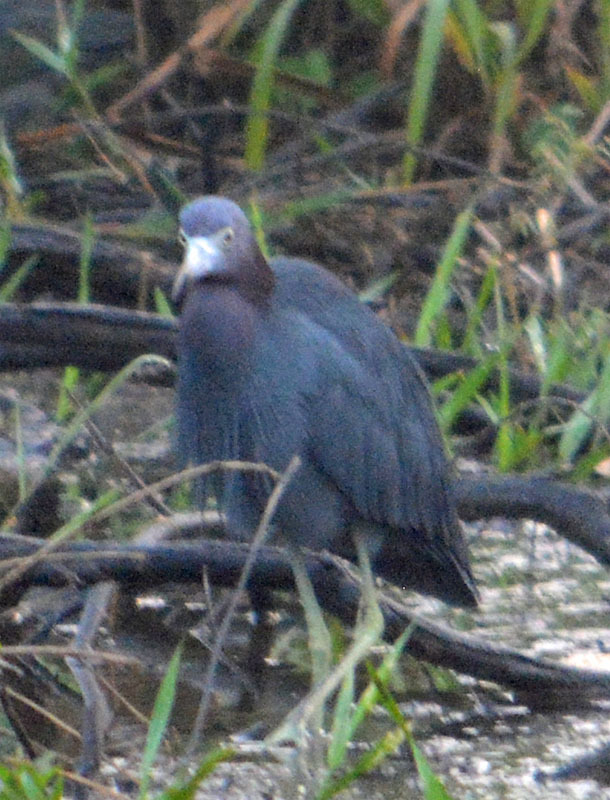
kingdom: Animalia
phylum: Chordata
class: Aves
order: Pelecaniformes
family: Ardeidae
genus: Egretta
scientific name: Egretta caerulea
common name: Little blue heron
